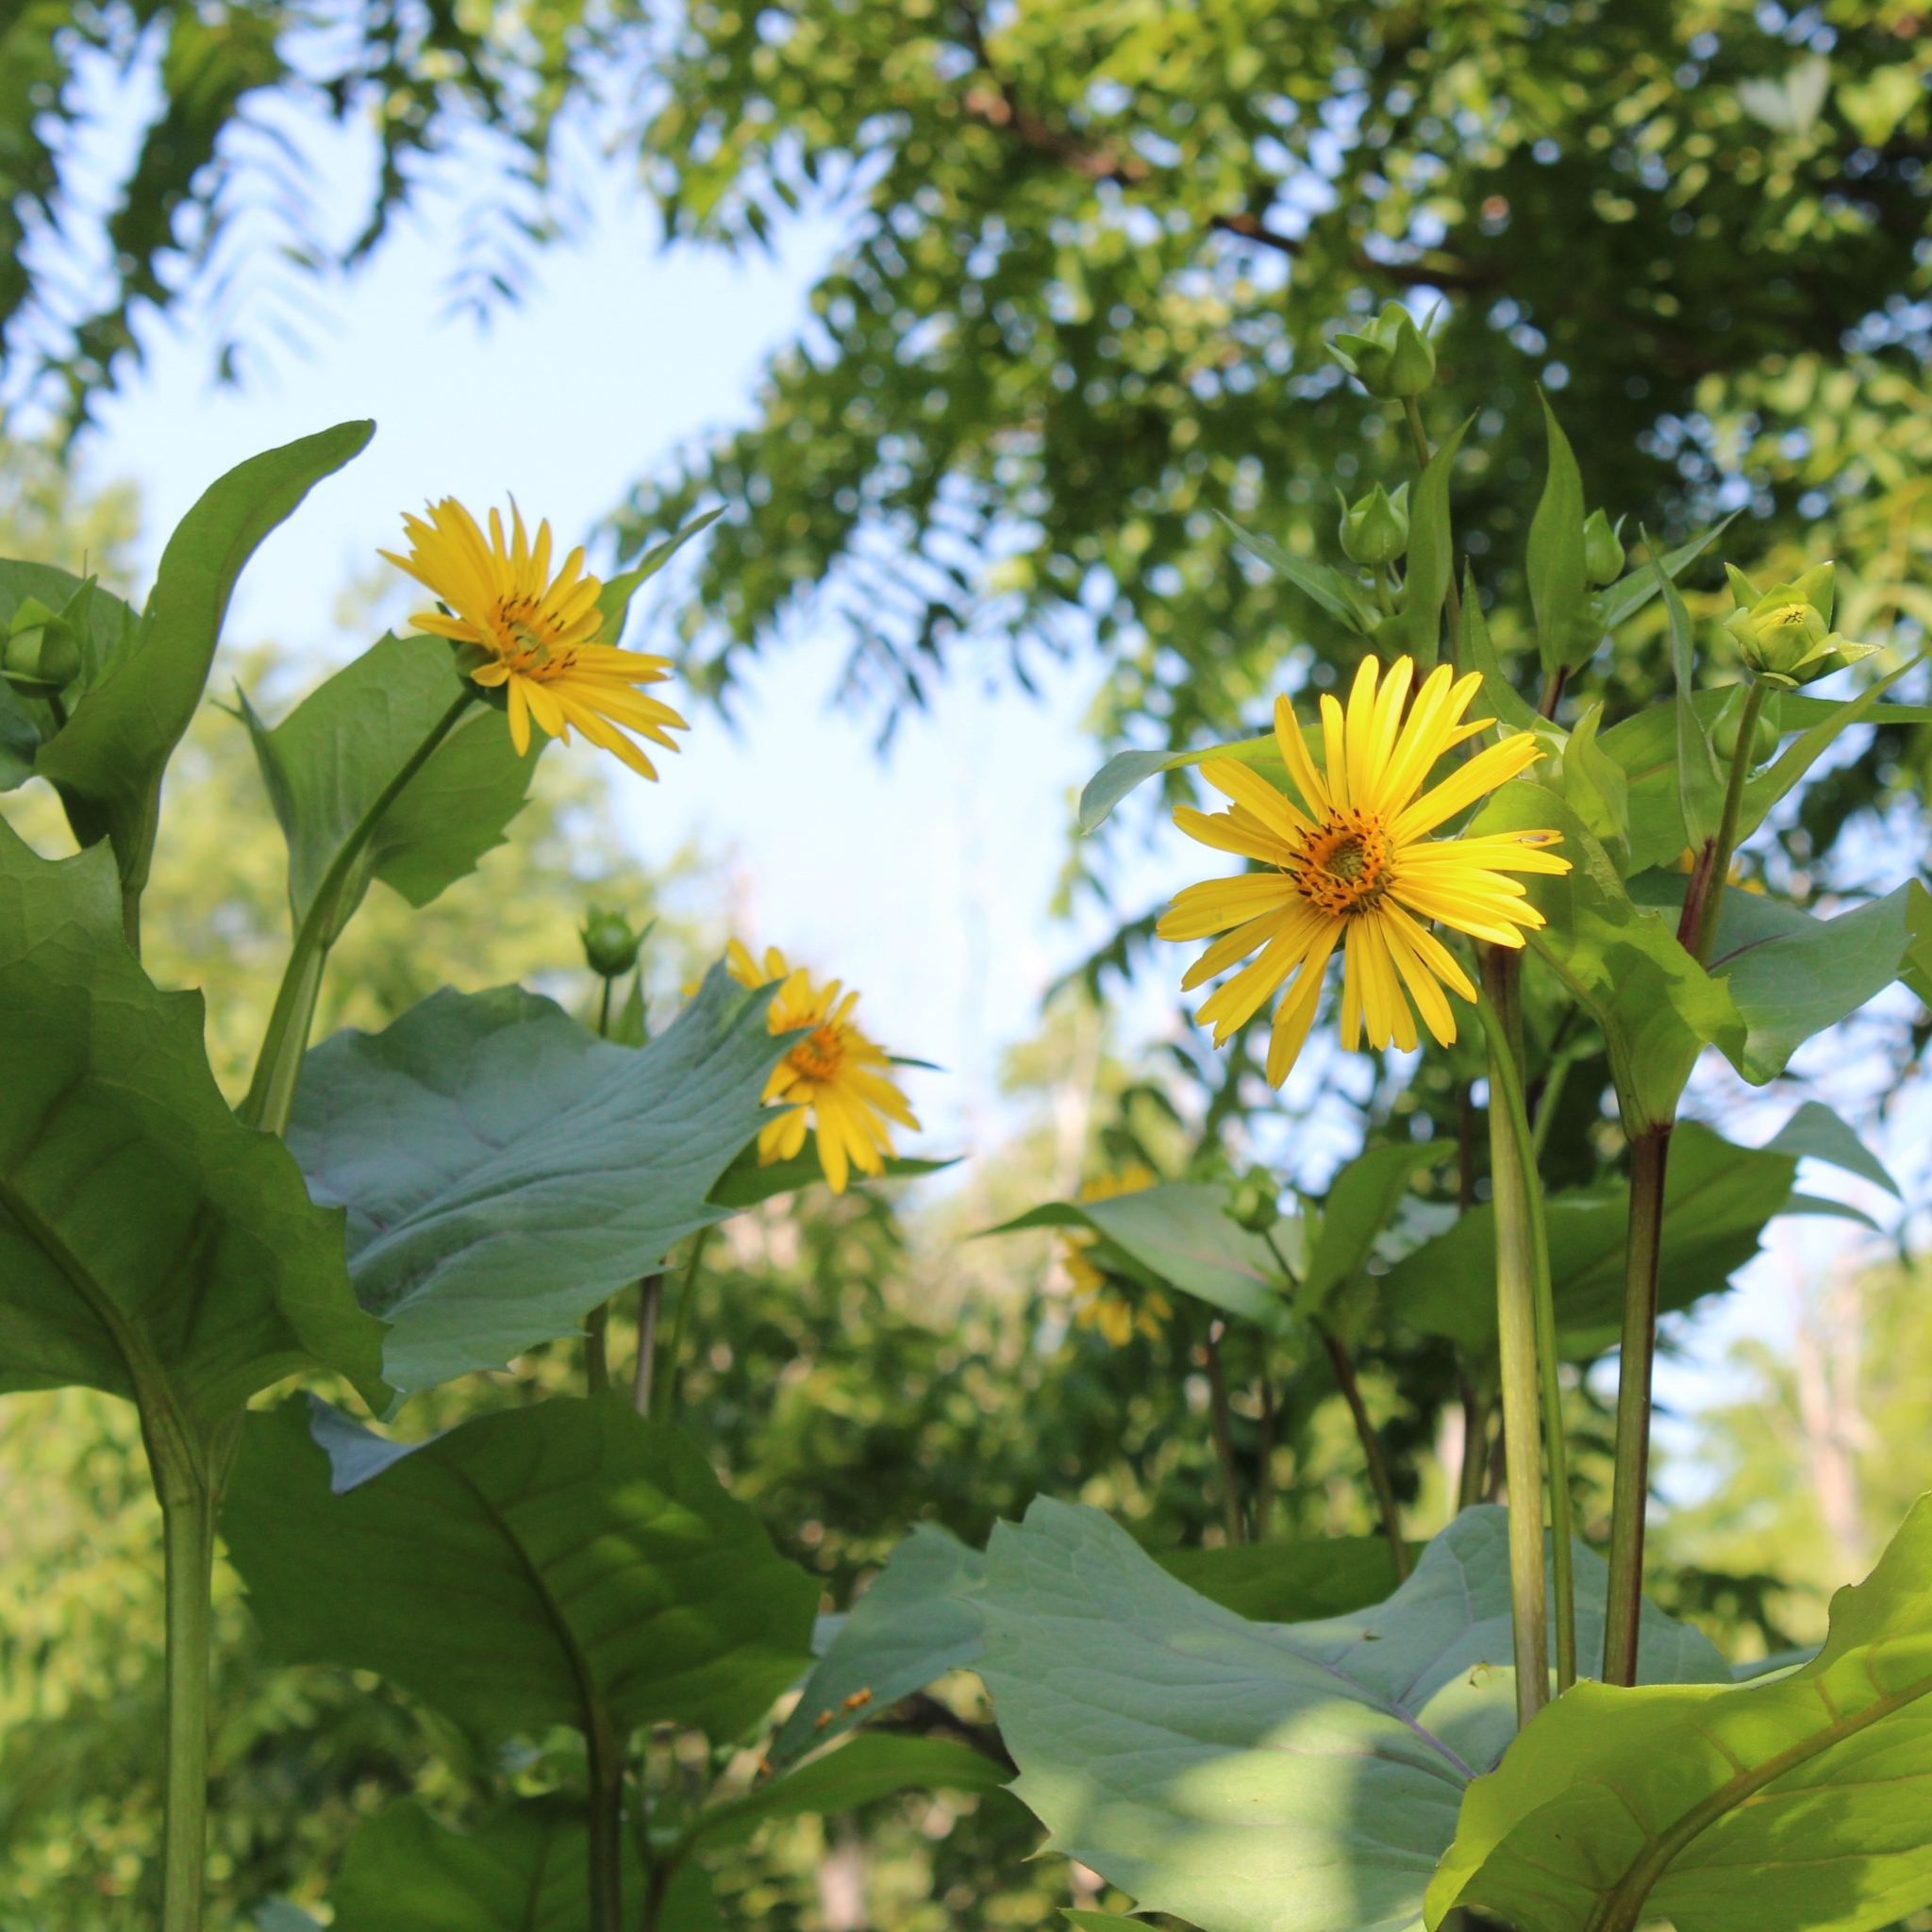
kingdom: Plantae
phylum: Tracheophyta
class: Magnoliopsida
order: Asterales
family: Asteraceae
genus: Silphium
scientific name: Silphium perfoliatum
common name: Cup-plant
